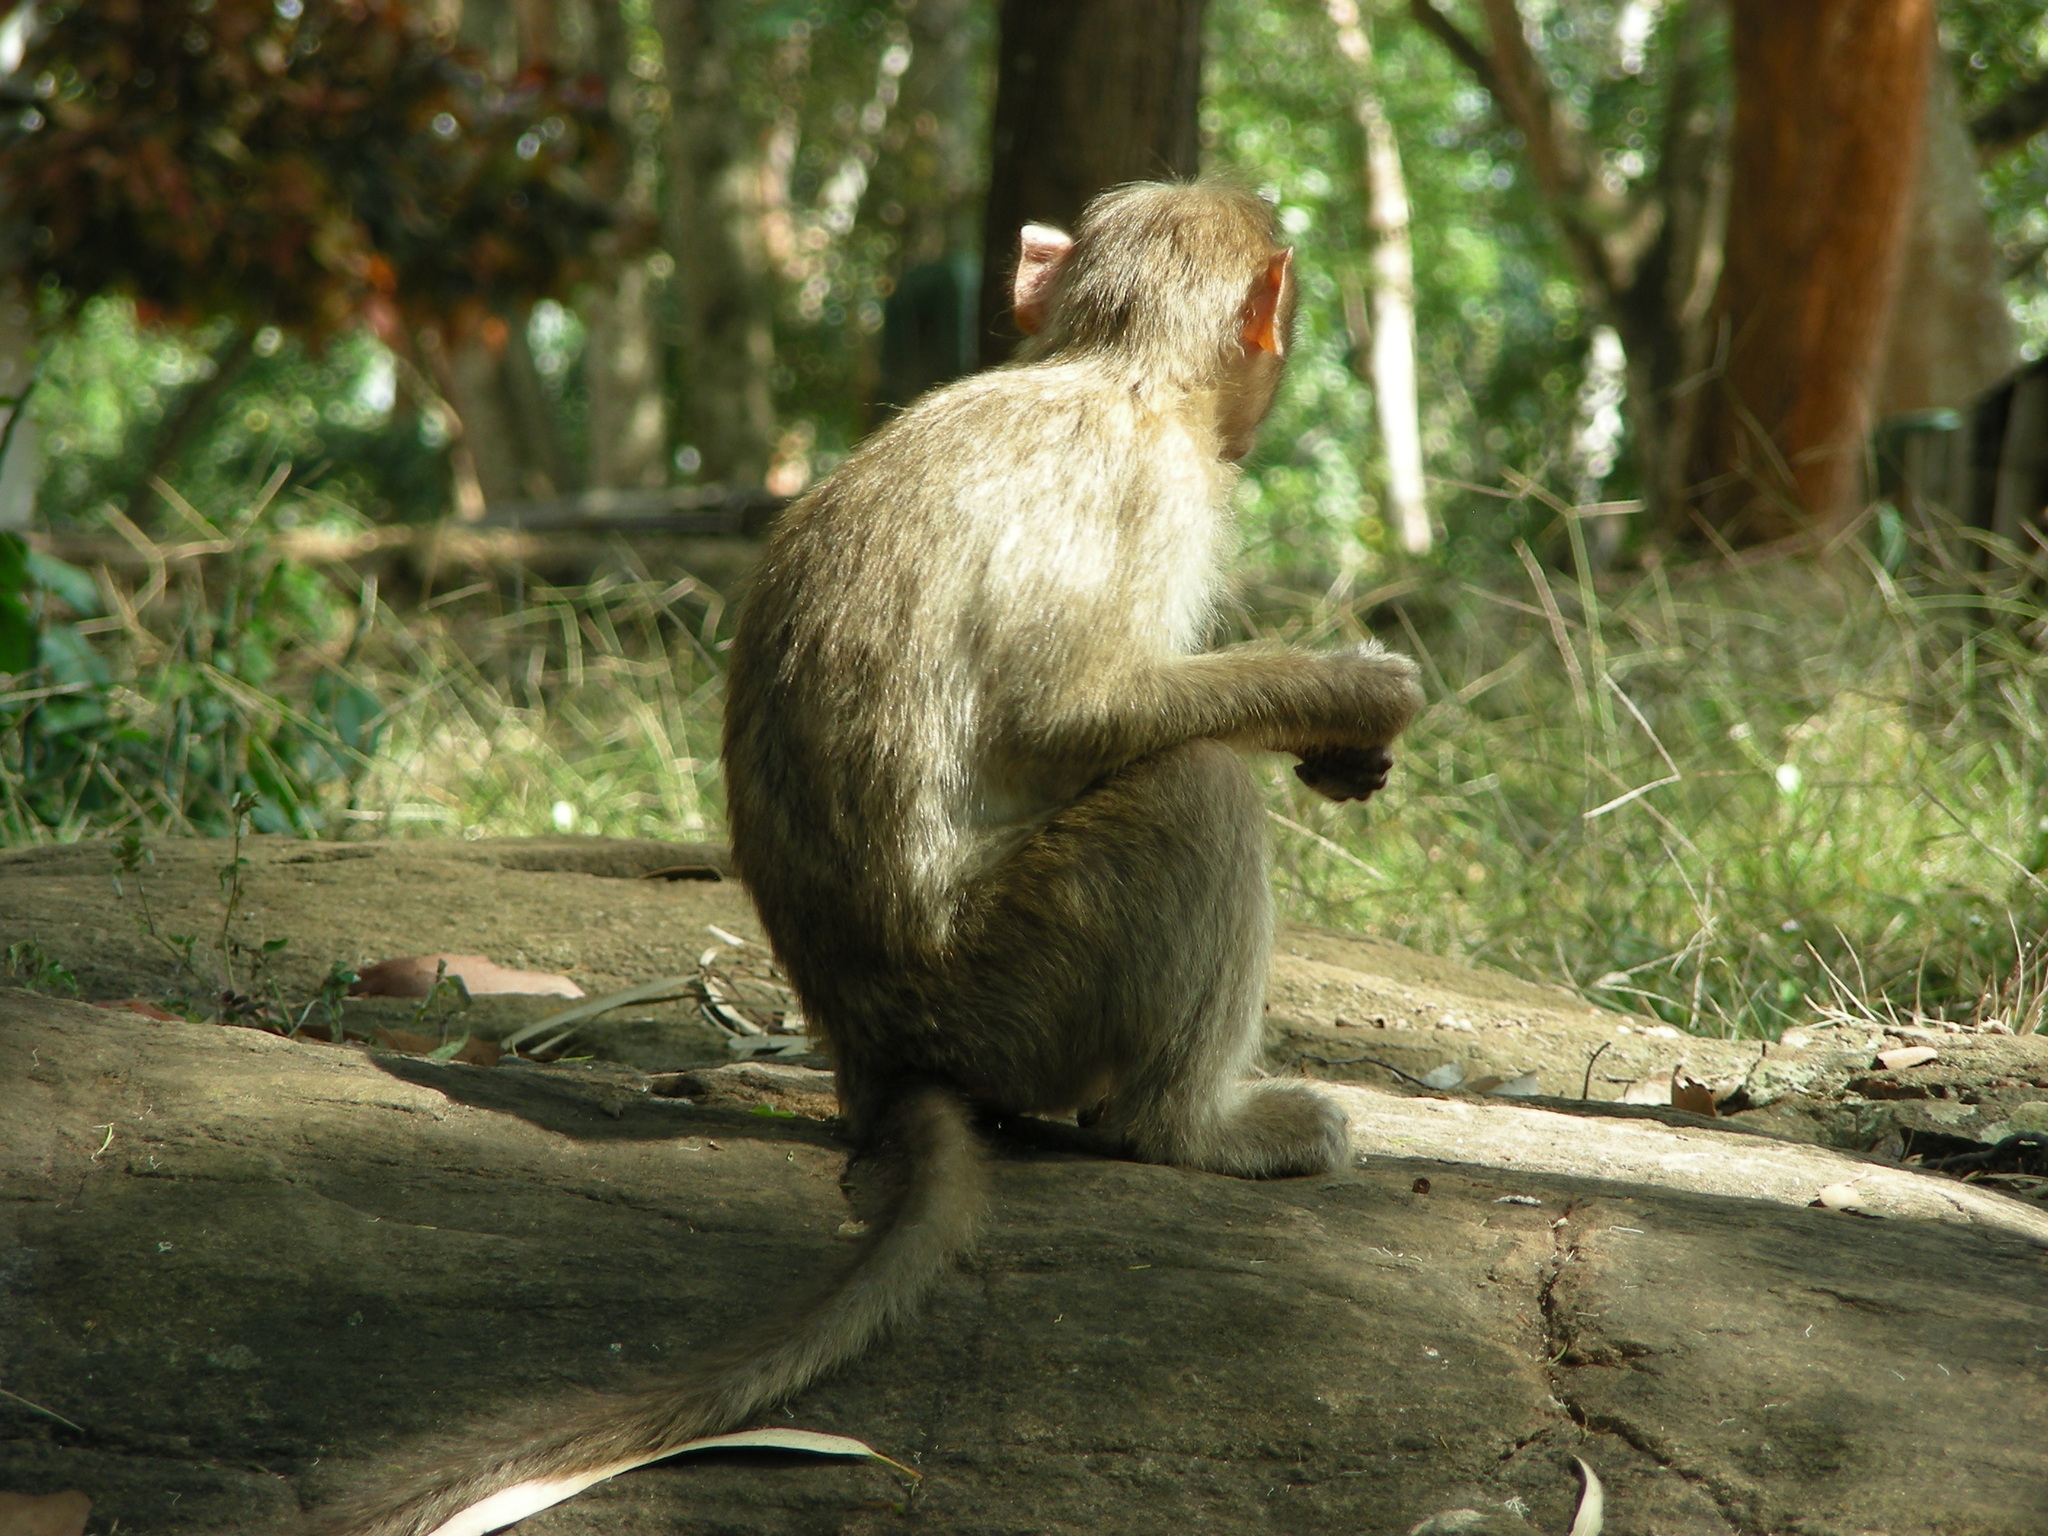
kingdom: Animalia
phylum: Chordata
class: Mammalia
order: Primates
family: Cercopithecidae
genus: Macaca
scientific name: Macaca radiata
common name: Bonnet macaque
